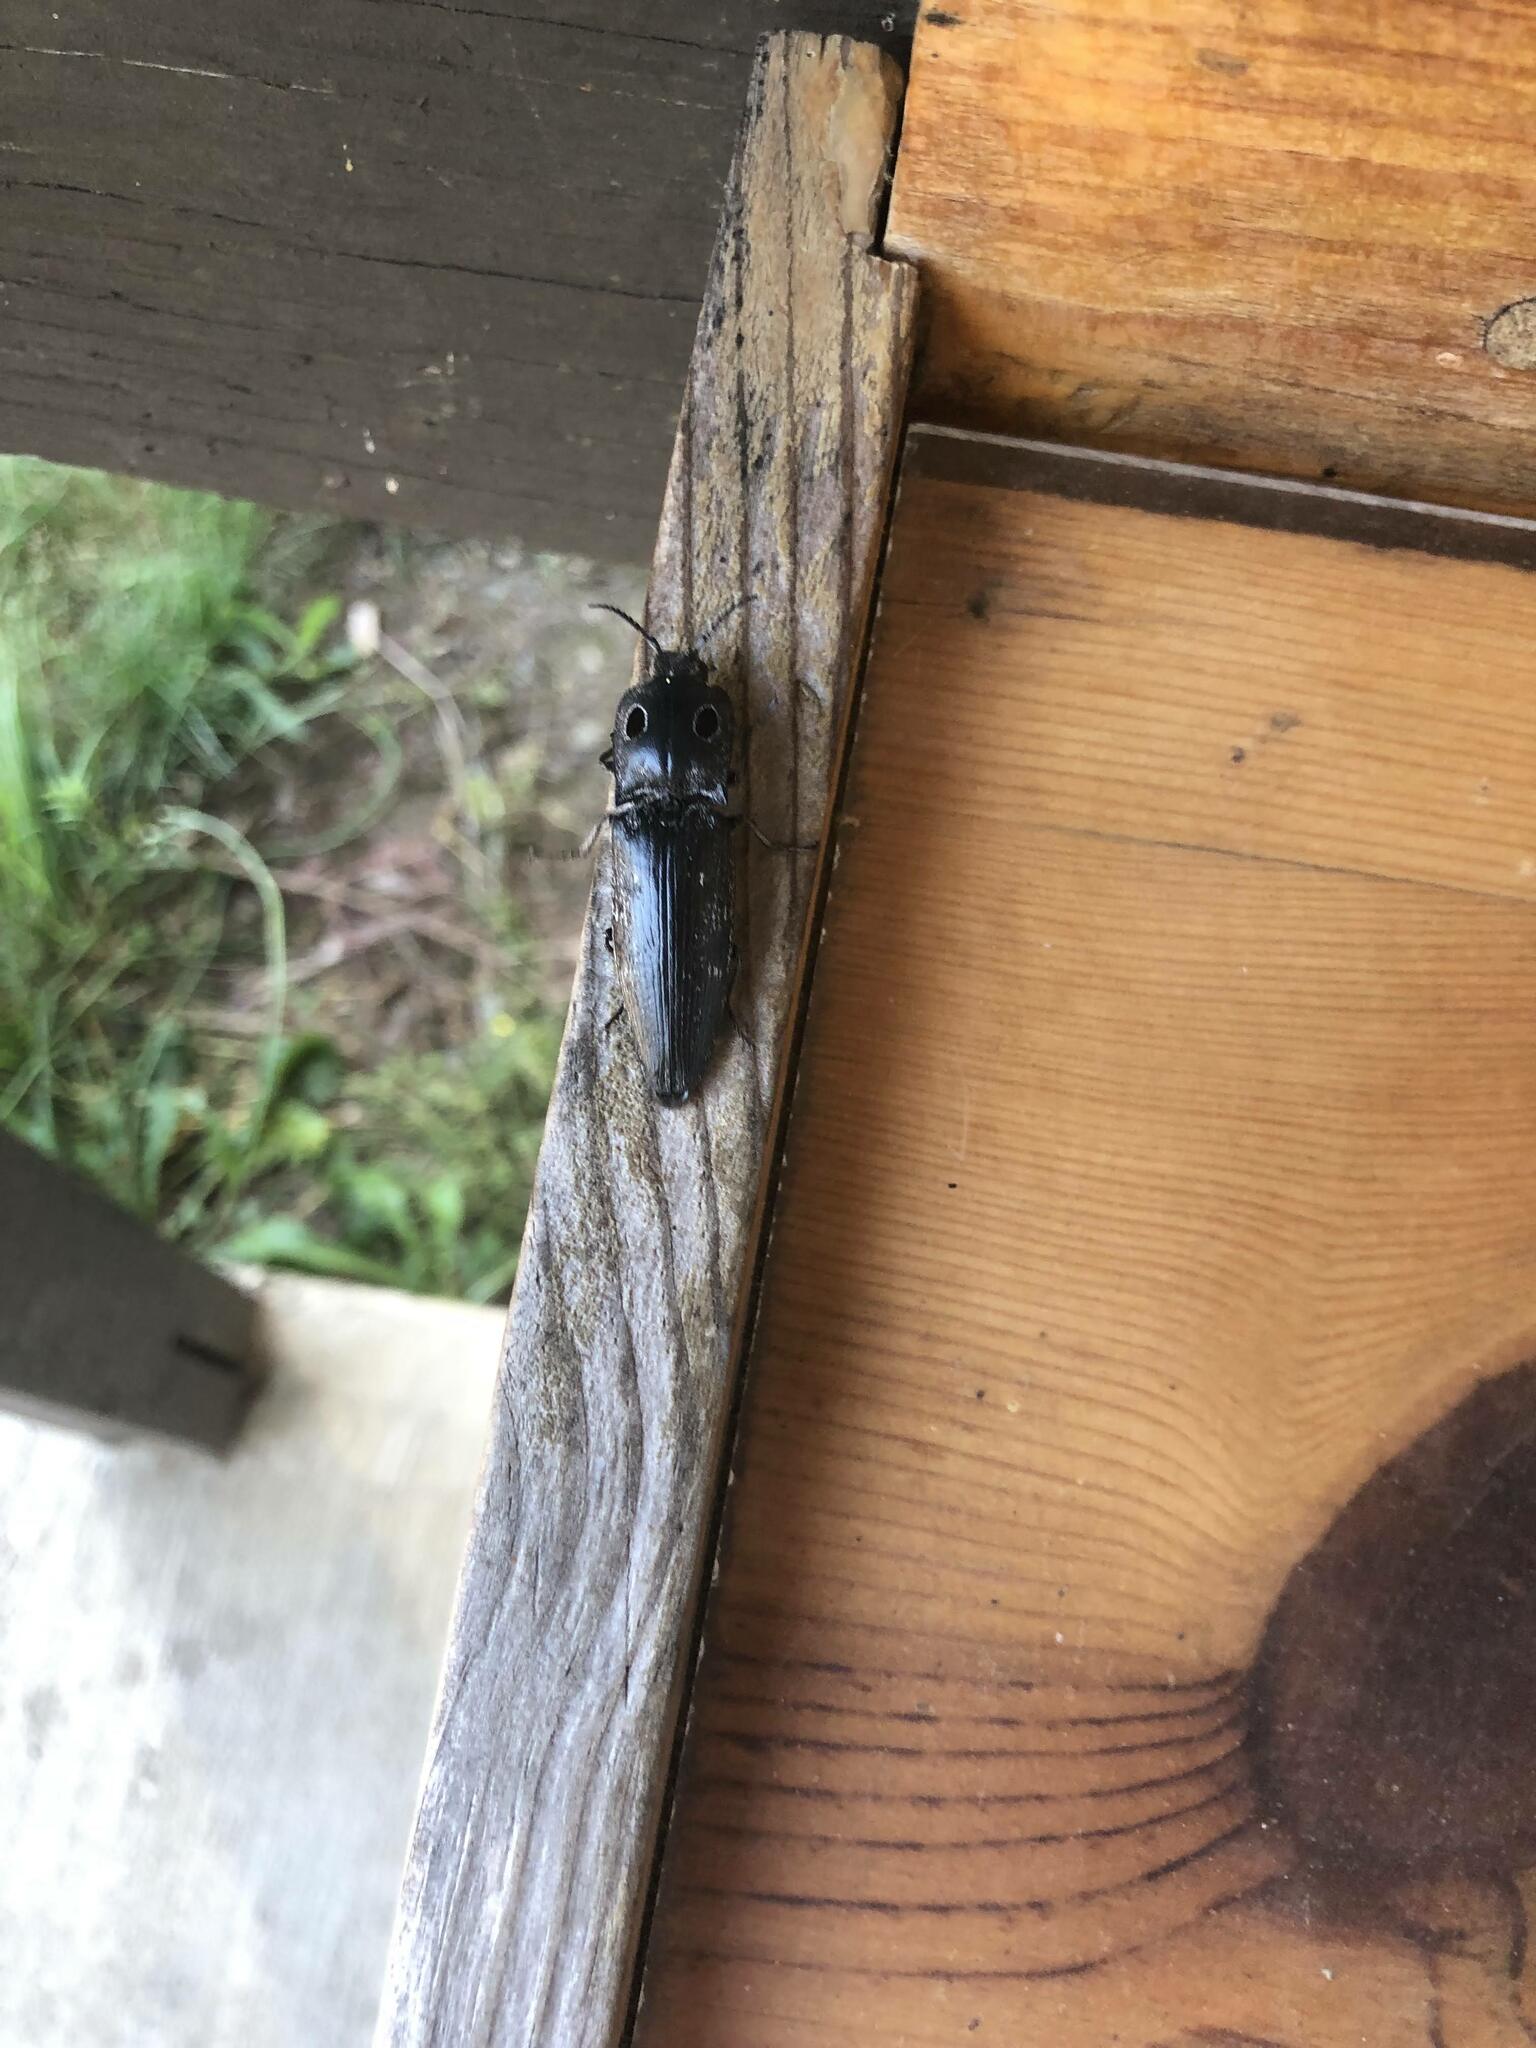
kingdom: Animalia
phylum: Arthropoda
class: Insecta
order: Coleoptera
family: Elateridae
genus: Alaus
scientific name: Alaus melanops
